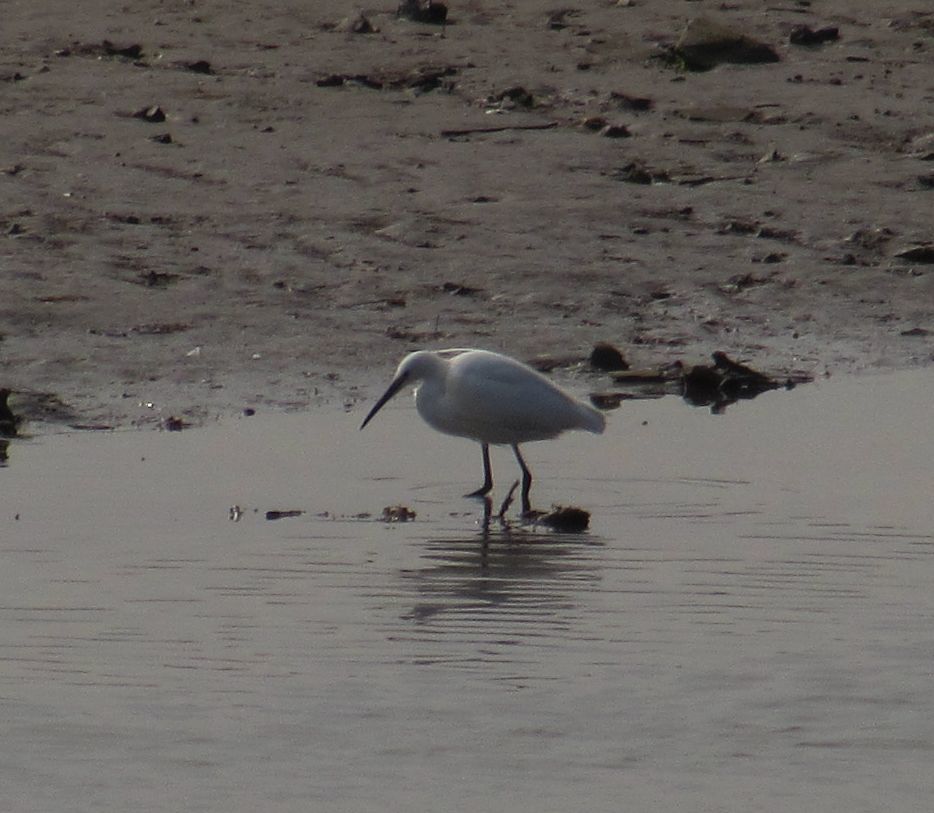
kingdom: Animalia
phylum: Chordata
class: Aves
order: Pelecaniformes
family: Ardeidae
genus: Egretta
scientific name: Egretta garzetta
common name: Little egret
